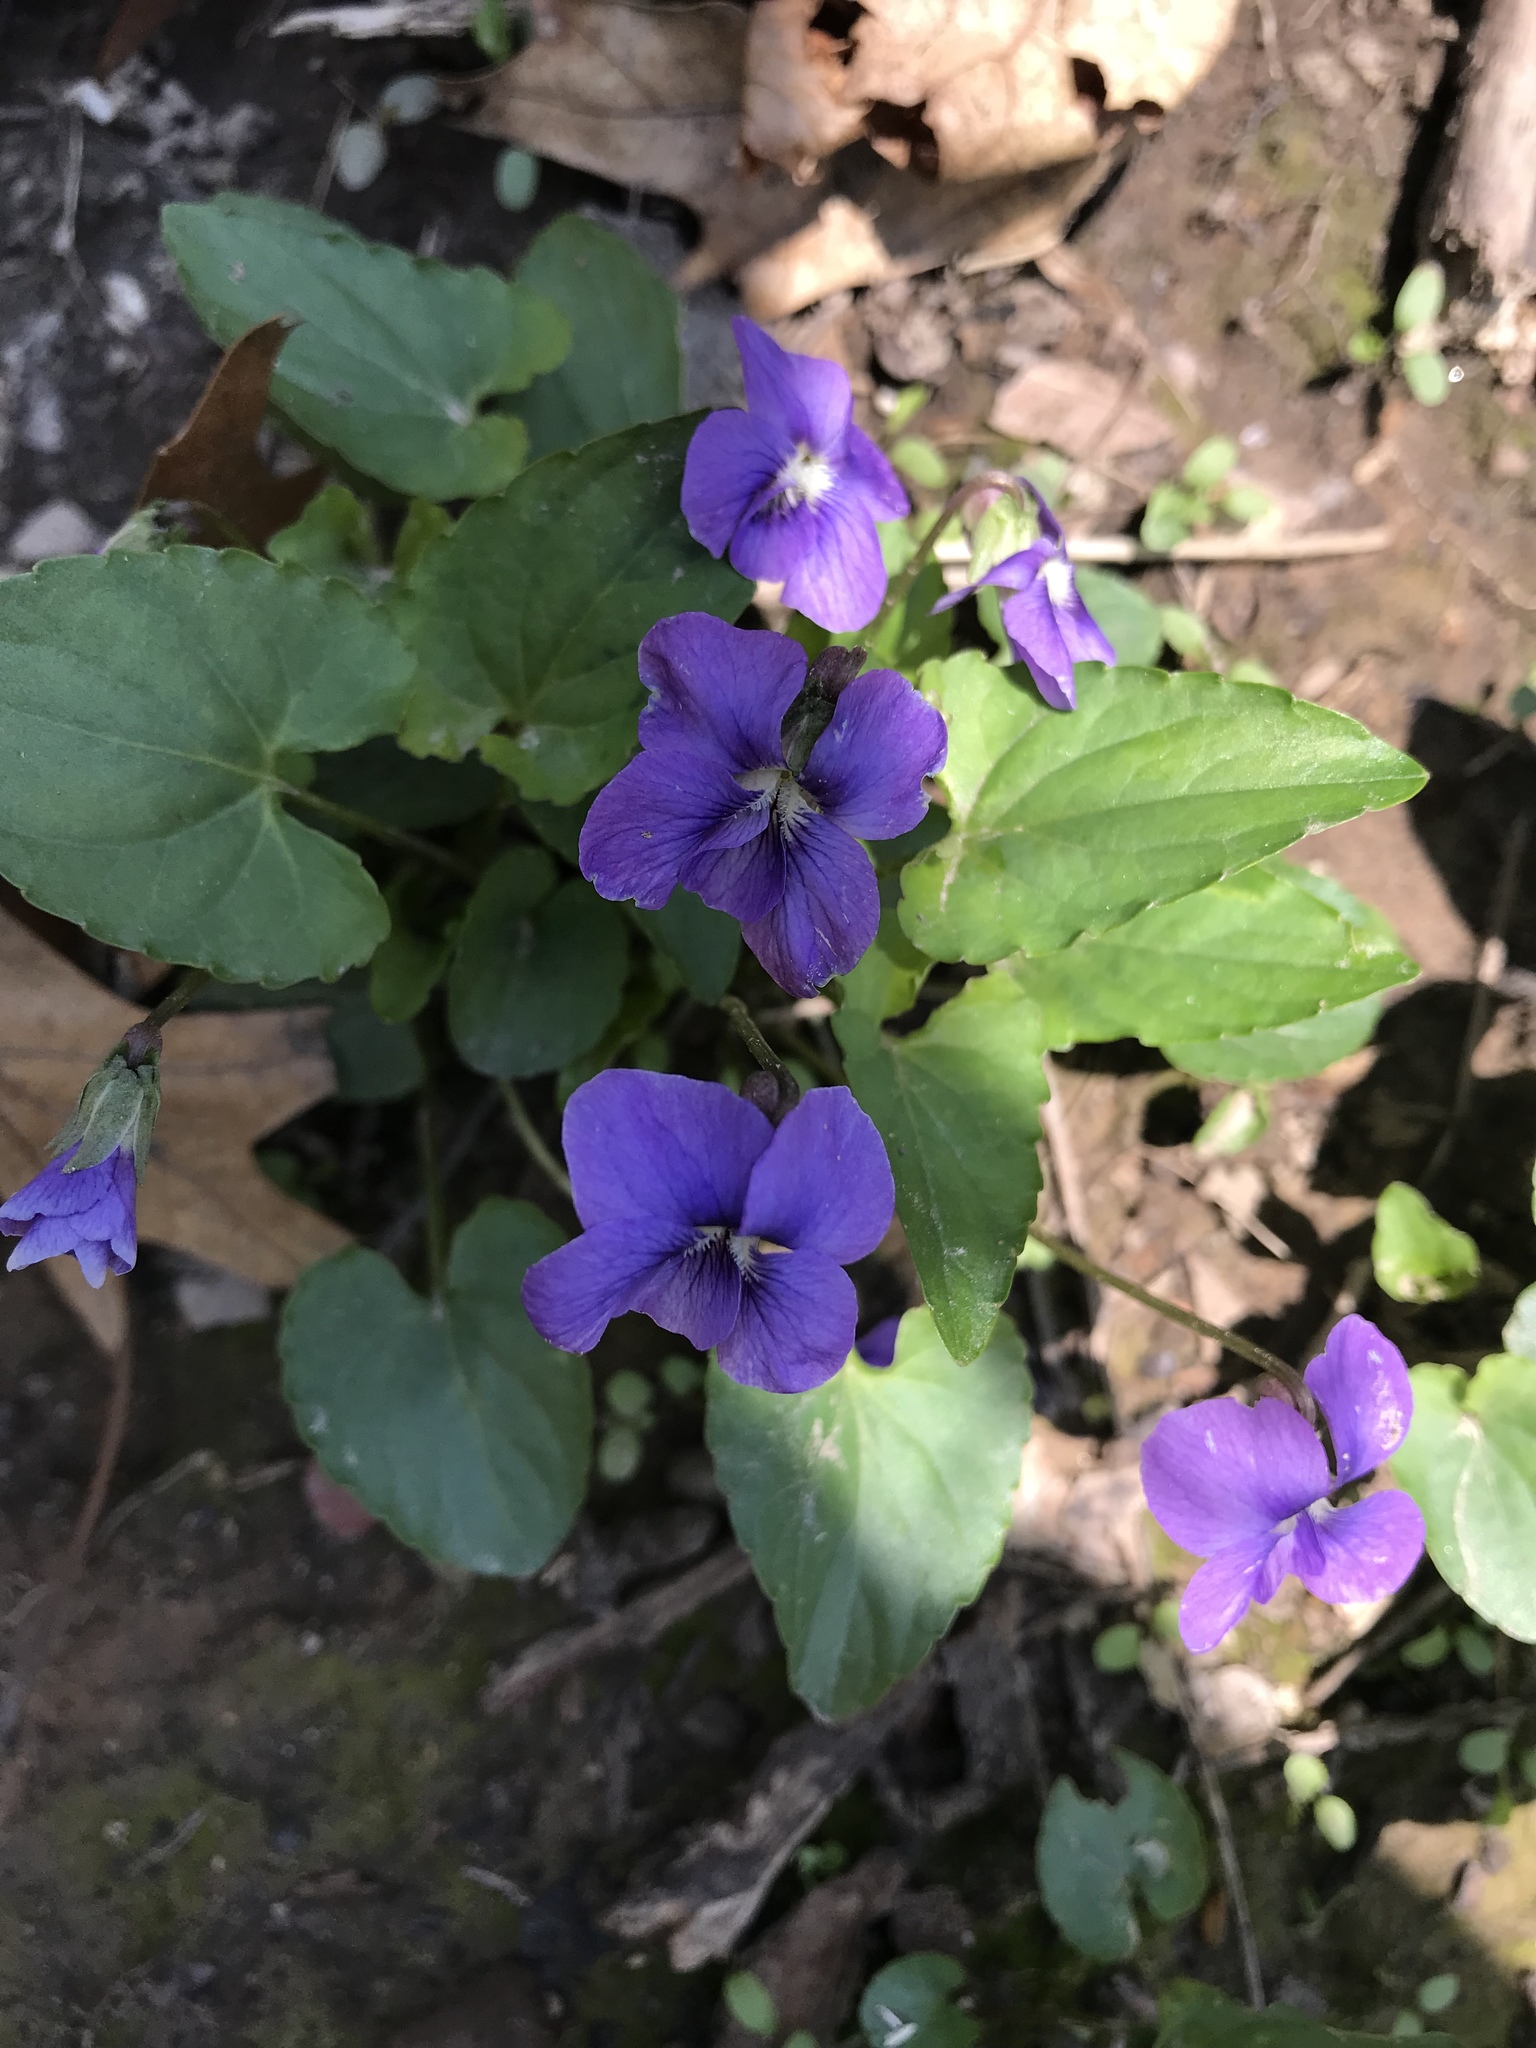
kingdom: Plantae
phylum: Tracheophyta
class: Magnoliopsida
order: Malpighiales
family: Violaceae
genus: Viola
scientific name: Viola sororia
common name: Dooryard violet
